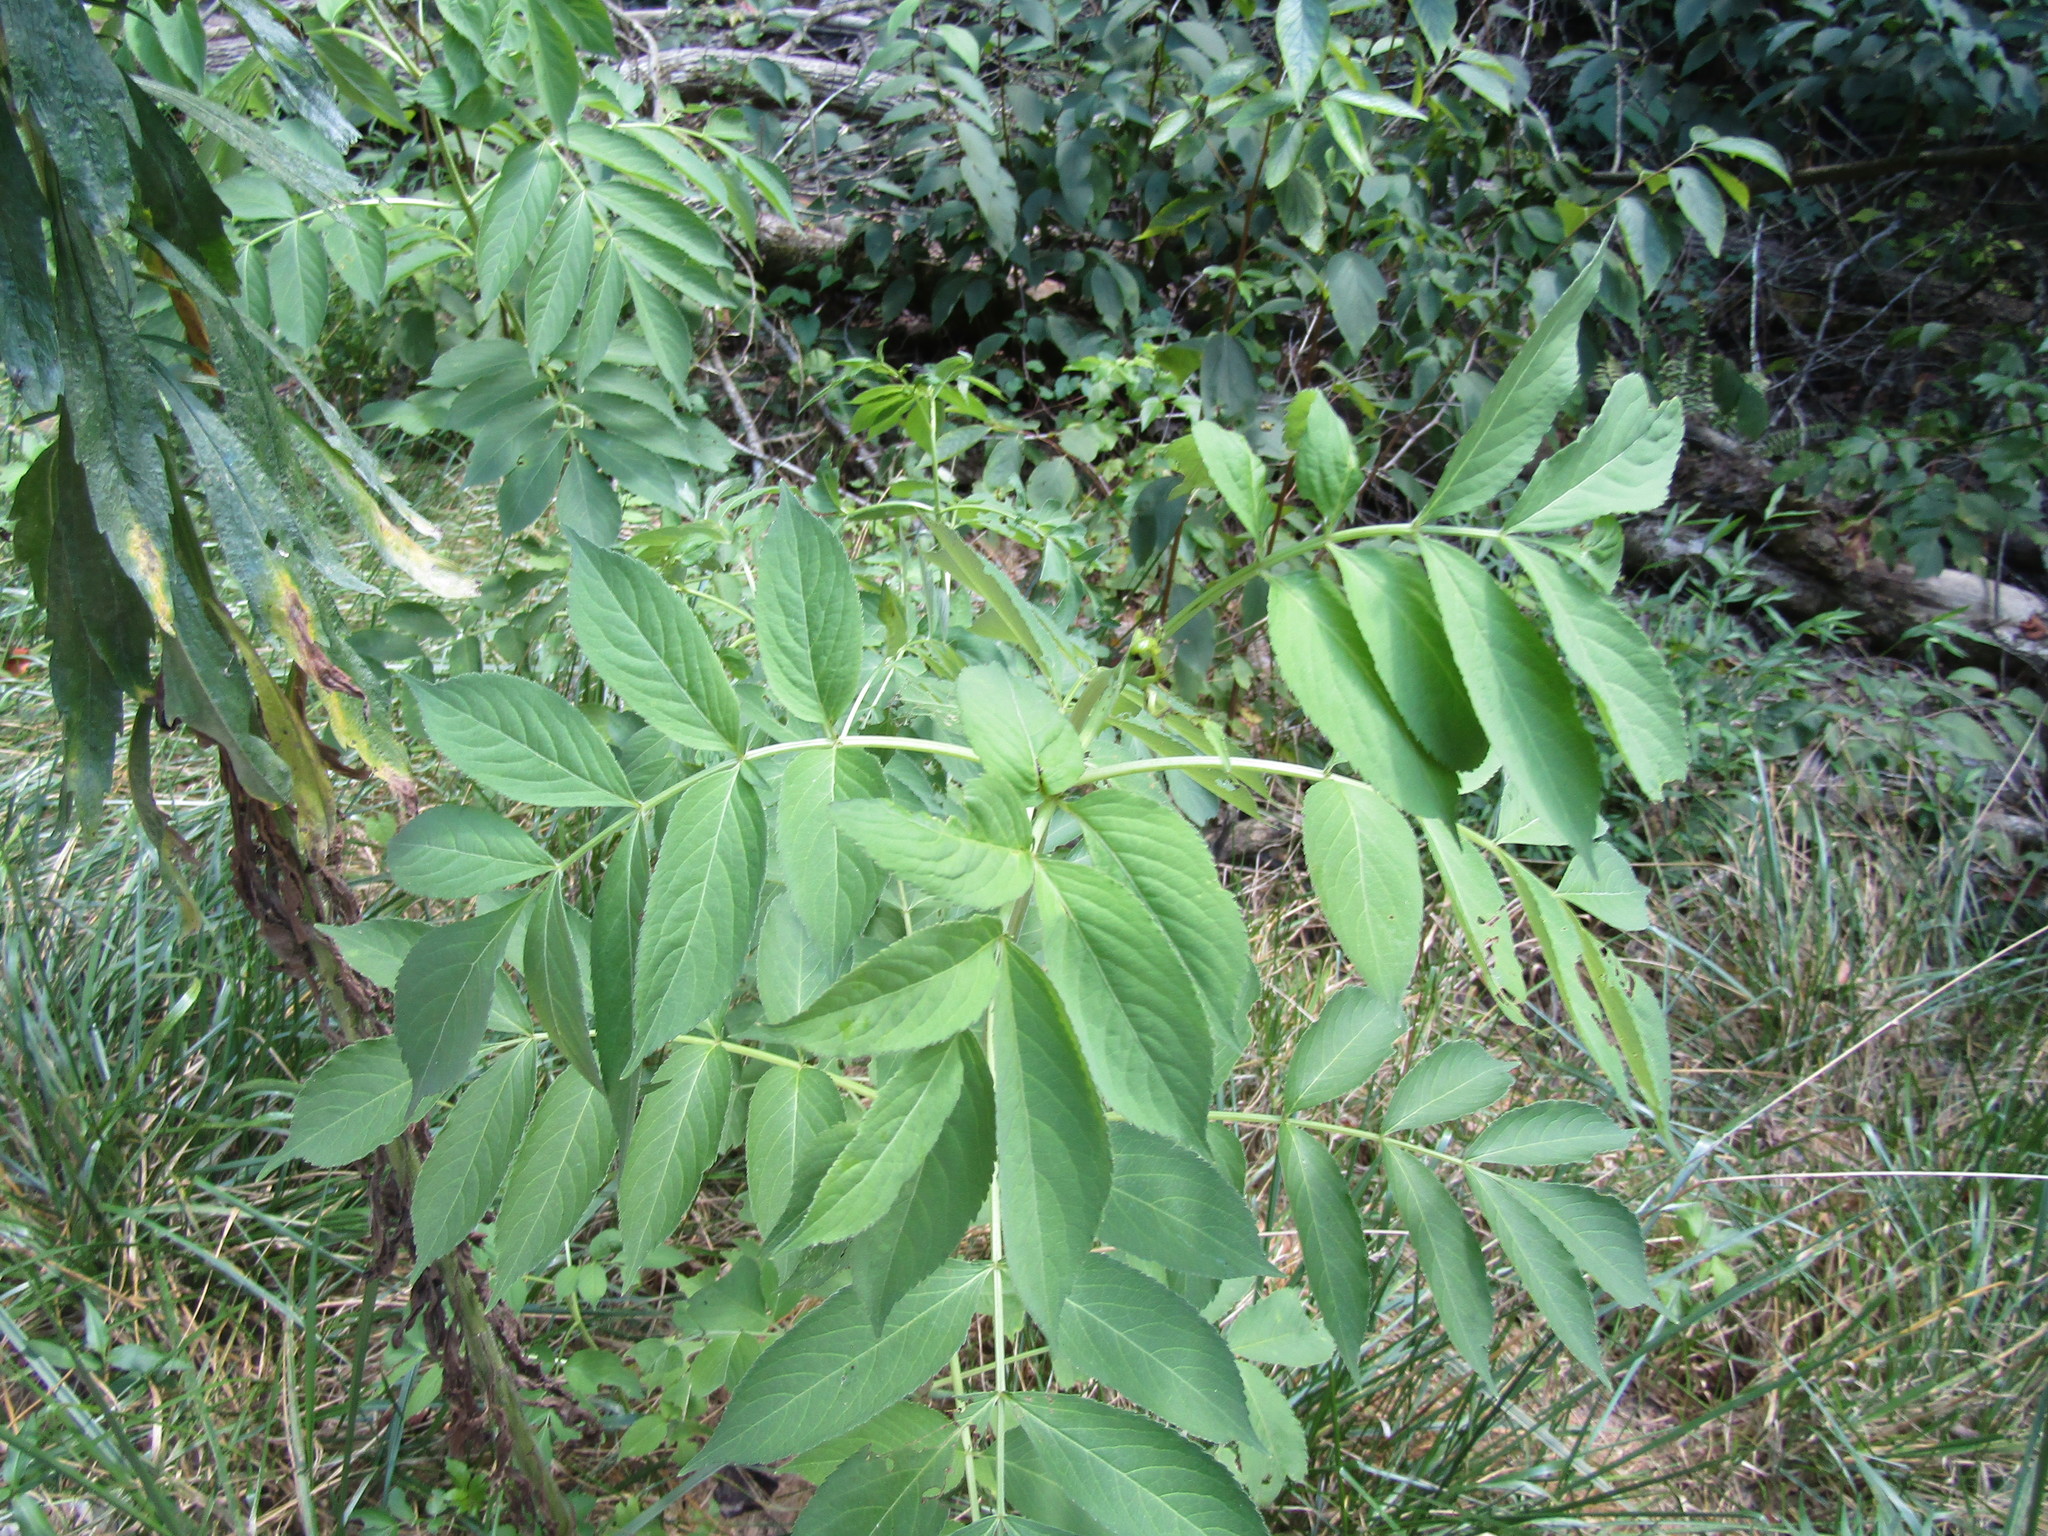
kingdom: Plantae
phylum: Tracheophyta
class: Magnoliopsida
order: Dipsacales
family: Viburnaceae
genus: Sambucus
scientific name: Sambucus canadensis
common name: American elder
